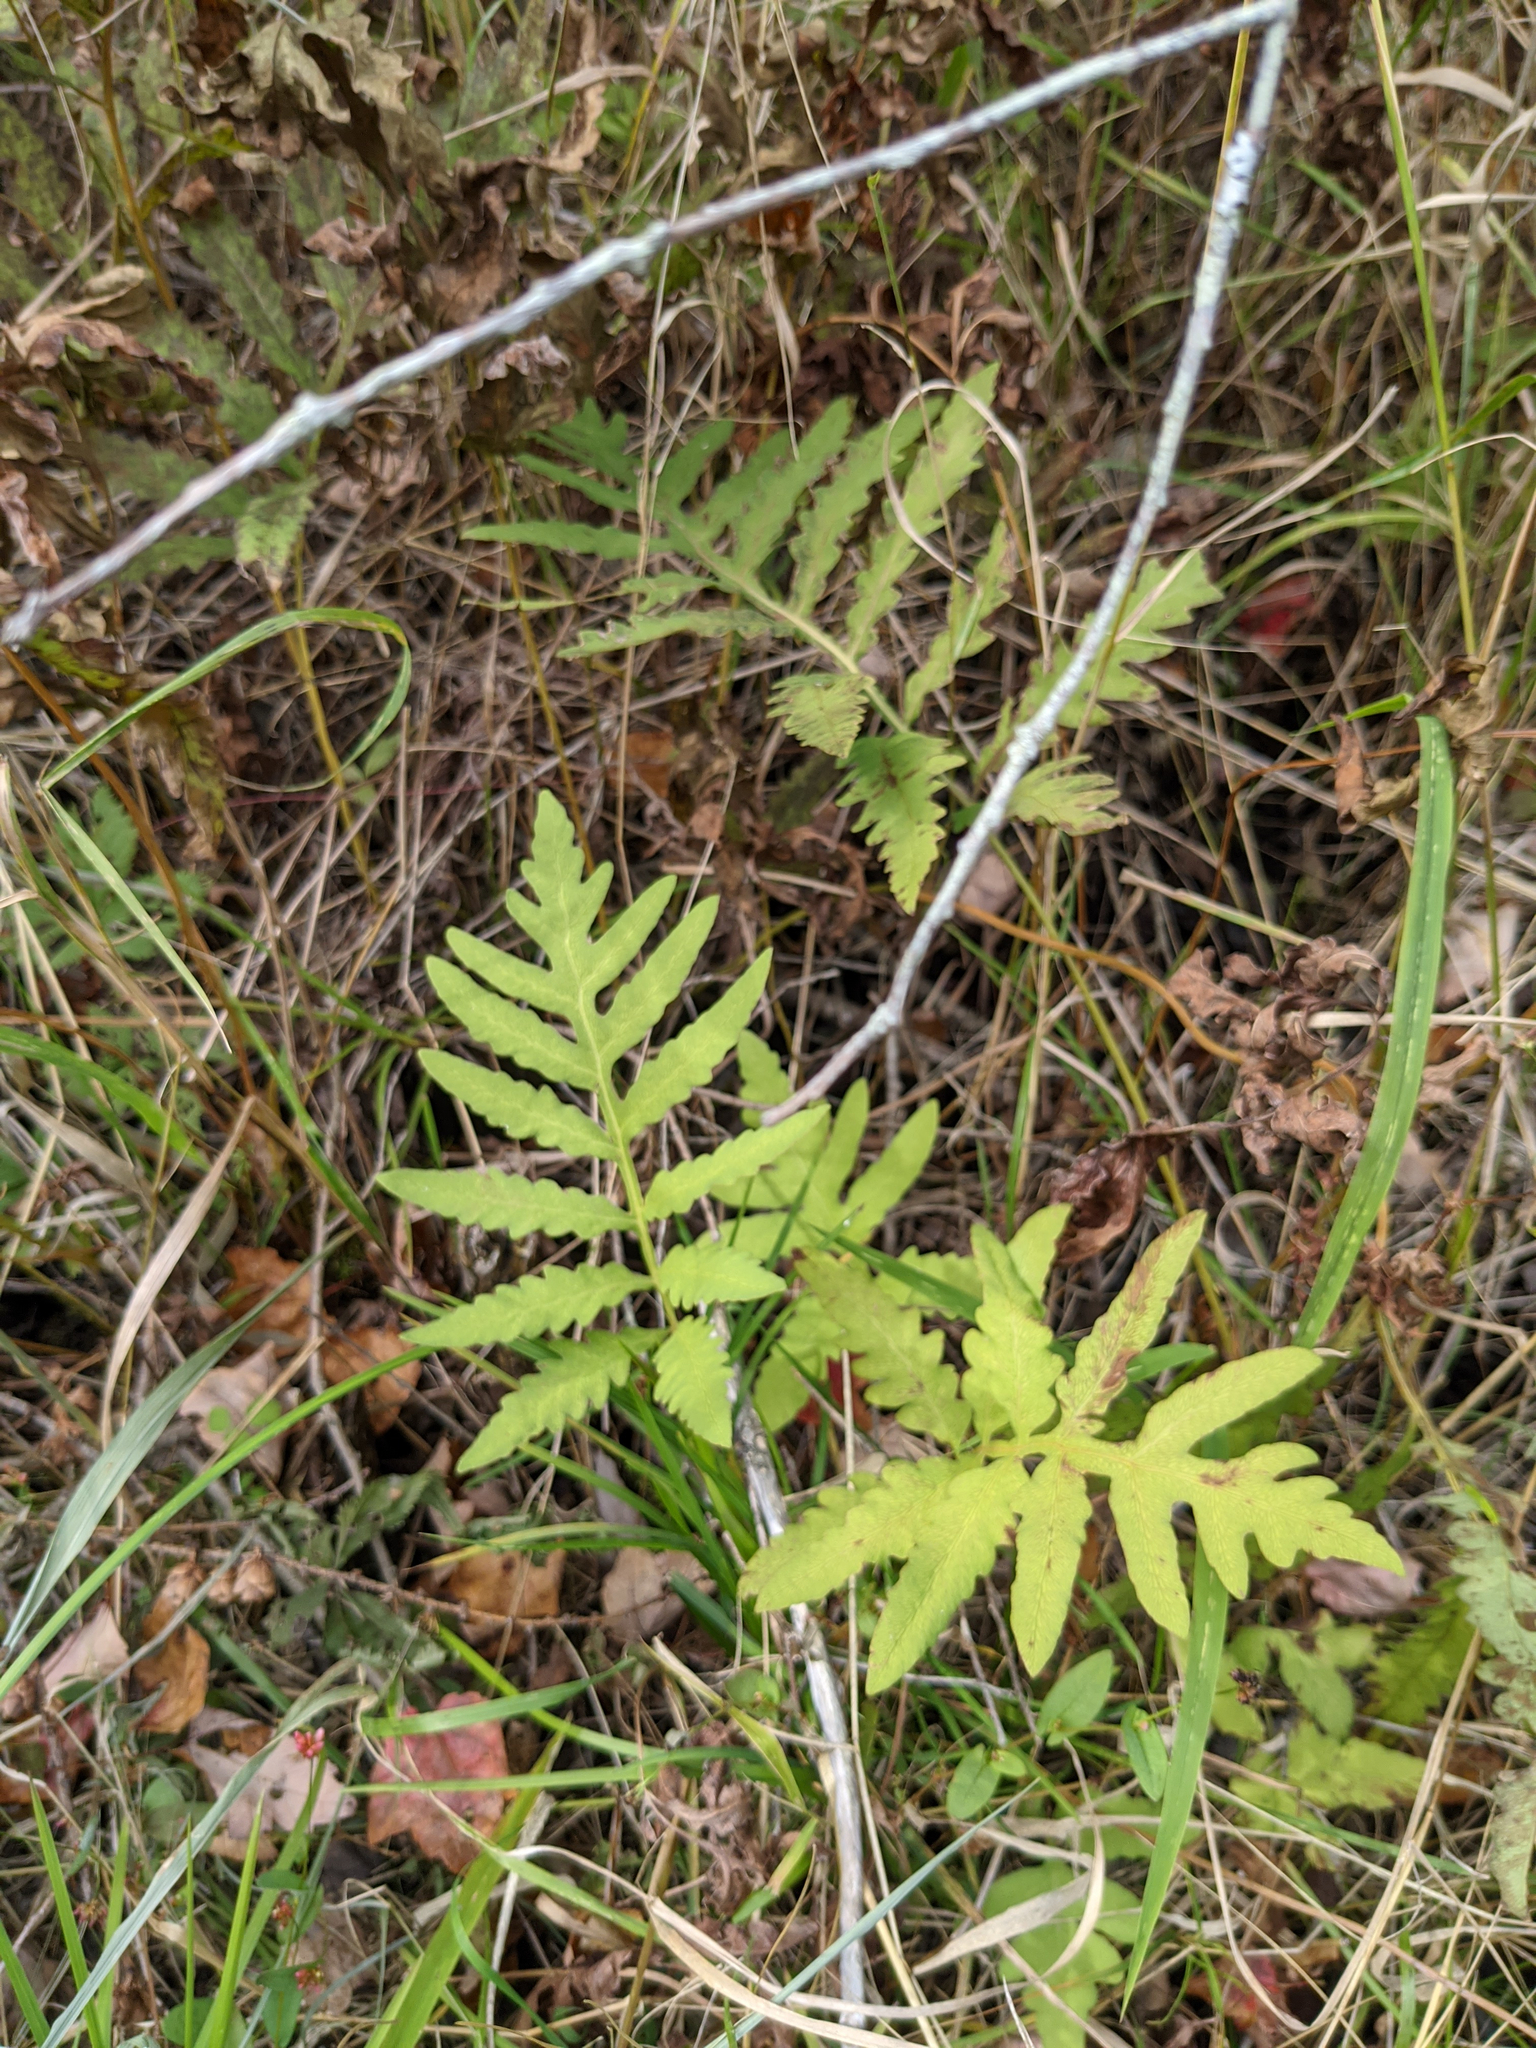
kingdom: Plantae
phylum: Tracheophyta
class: Polypodiopsida
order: Polypodiales
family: Onocleaceae
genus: Onoclea
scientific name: Onoclea sensibilis
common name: Sensitive fern
